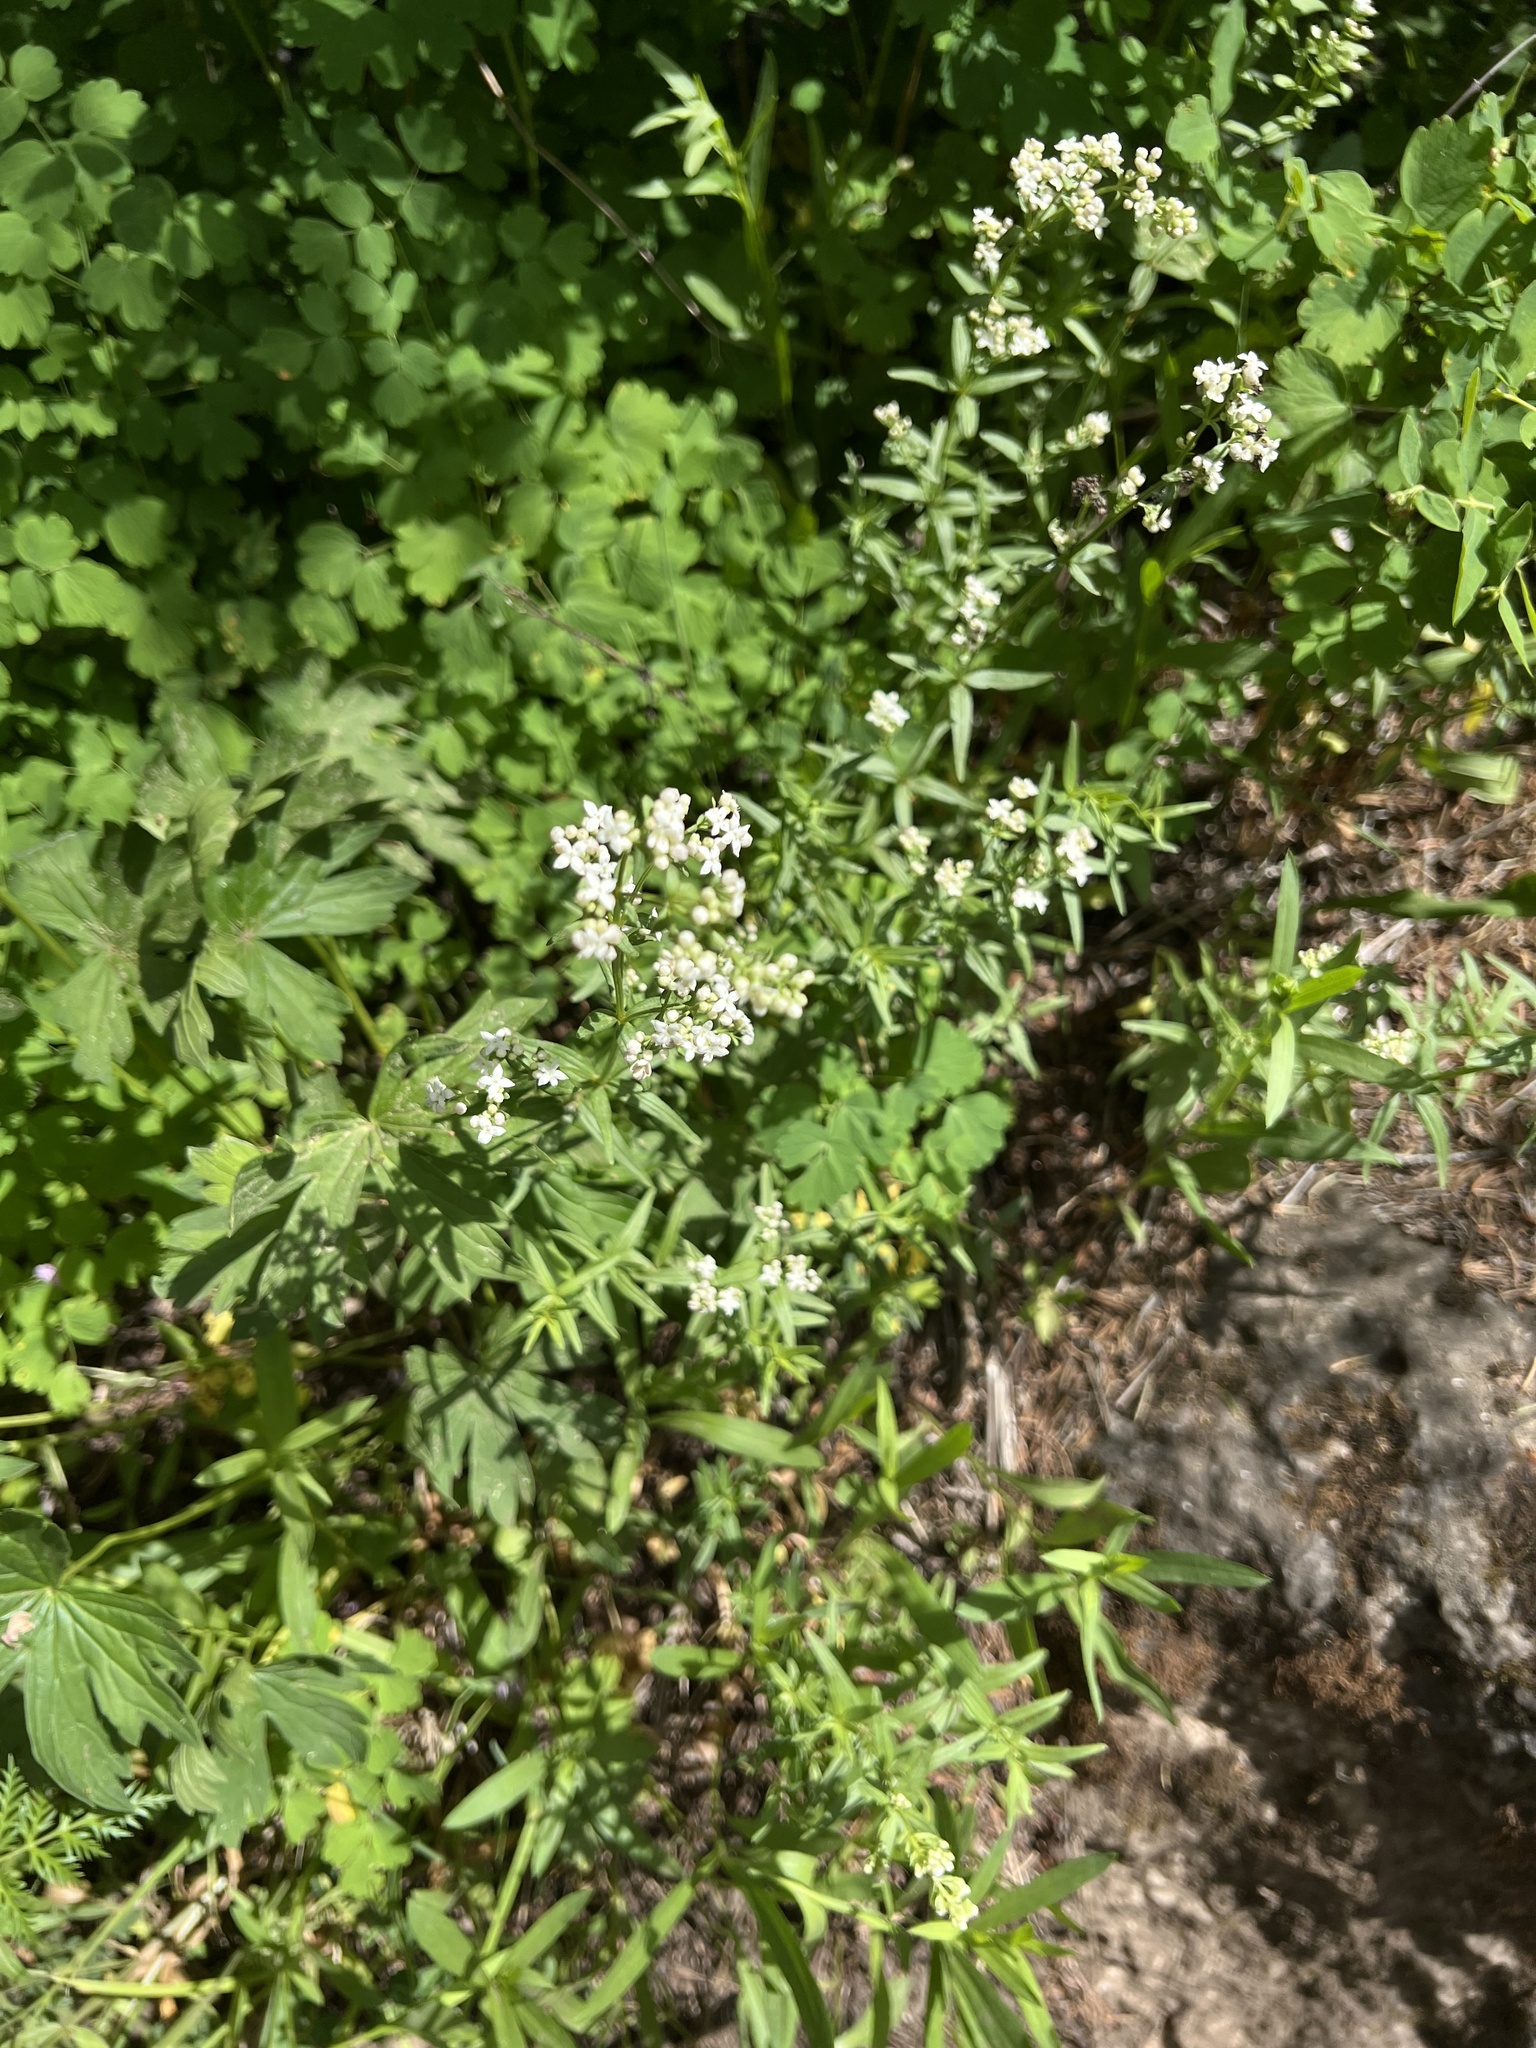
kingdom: Plantae
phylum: Tracheophyta
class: Magnoliopsida
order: Gentianales
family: Rubiaceae
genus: Galium
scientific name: Galium boreale
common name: Northern bedstraw
